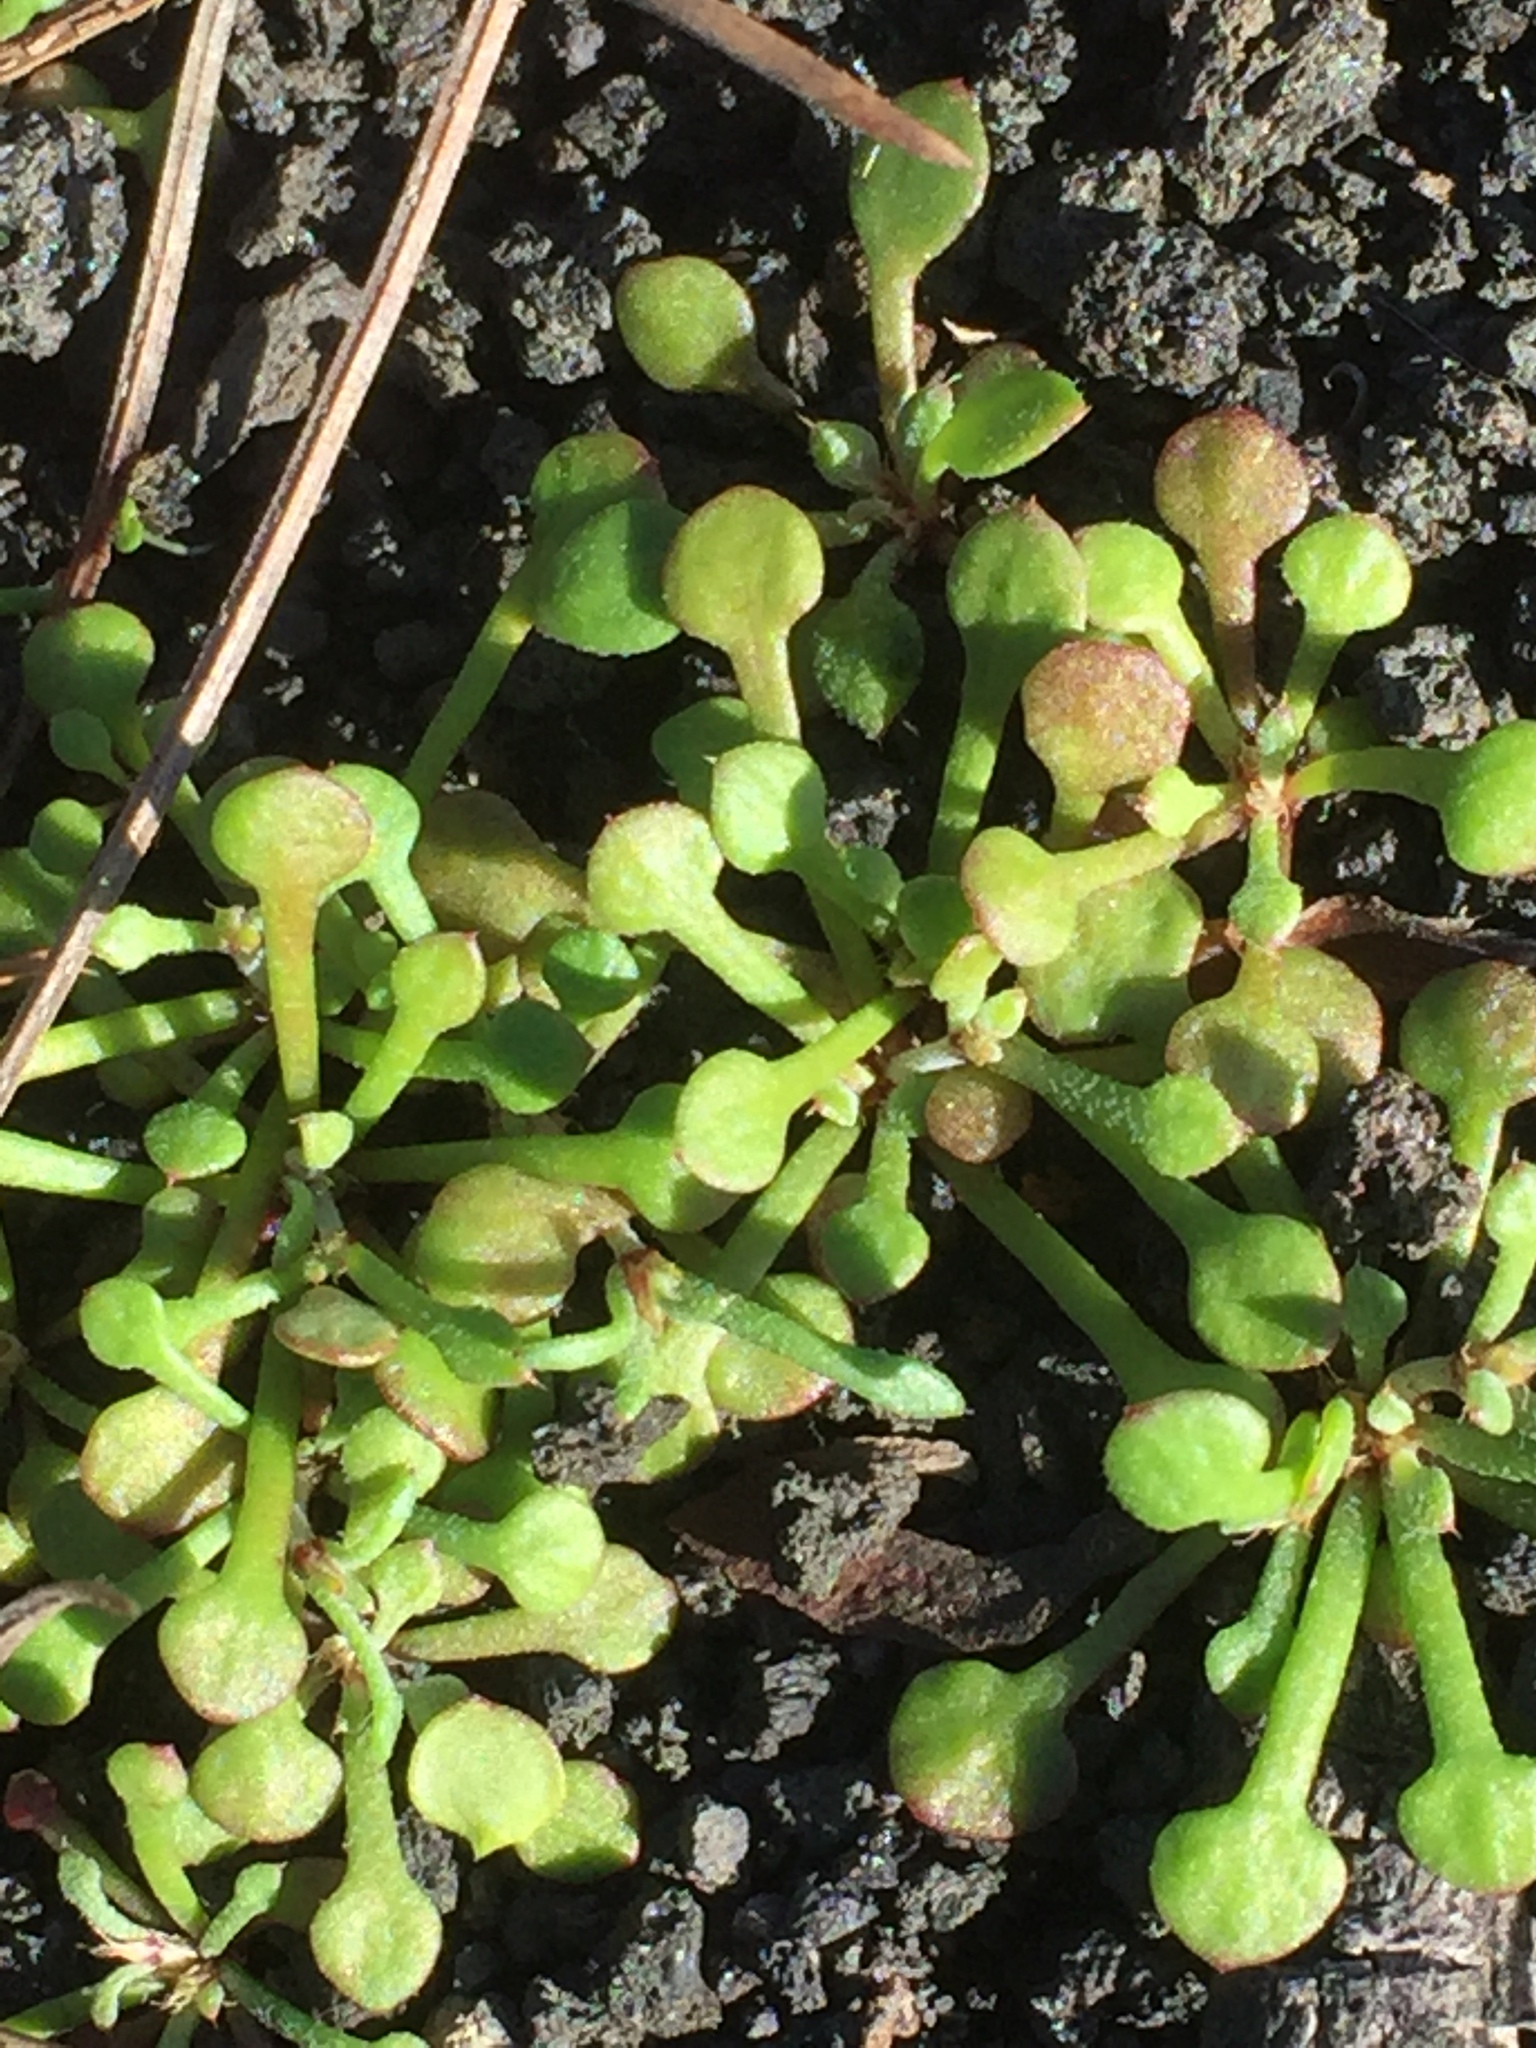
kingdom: Plantae
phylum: Tracheophyta
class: Magnoliopsida
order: Caryophyllales
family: Caryophyllaceae
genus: Polycarpaea
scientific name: Polycarpaea divaricata
